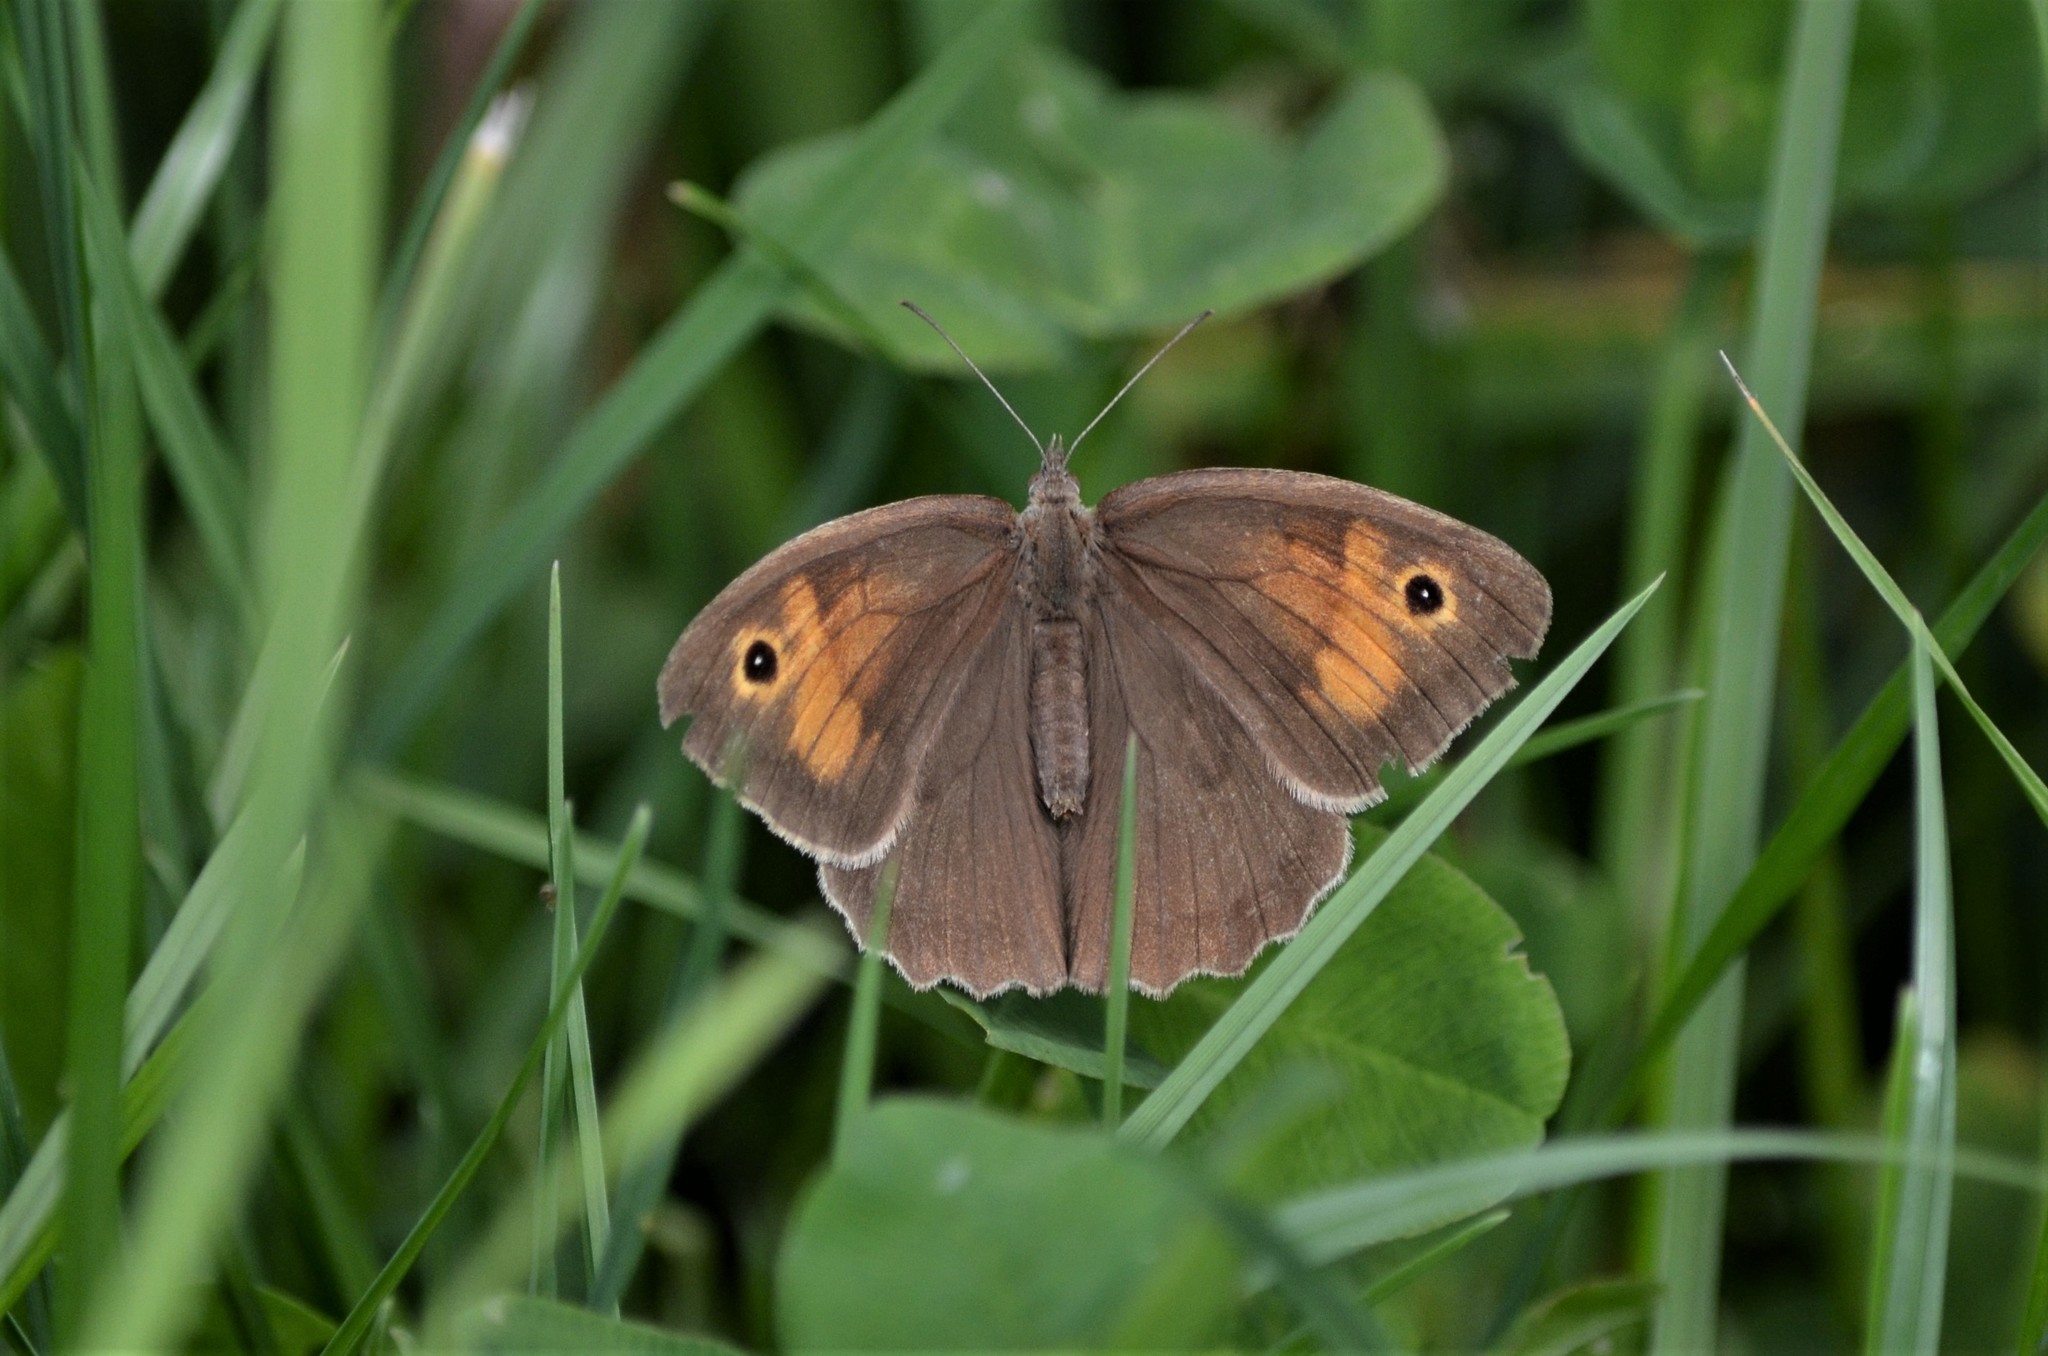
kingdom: Animalia
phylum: Arthropoda
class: Insecta
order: Lepidoptera
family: Nymphalidae
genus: Maniola
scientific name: Maniola jurtina
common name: Meadow brown
